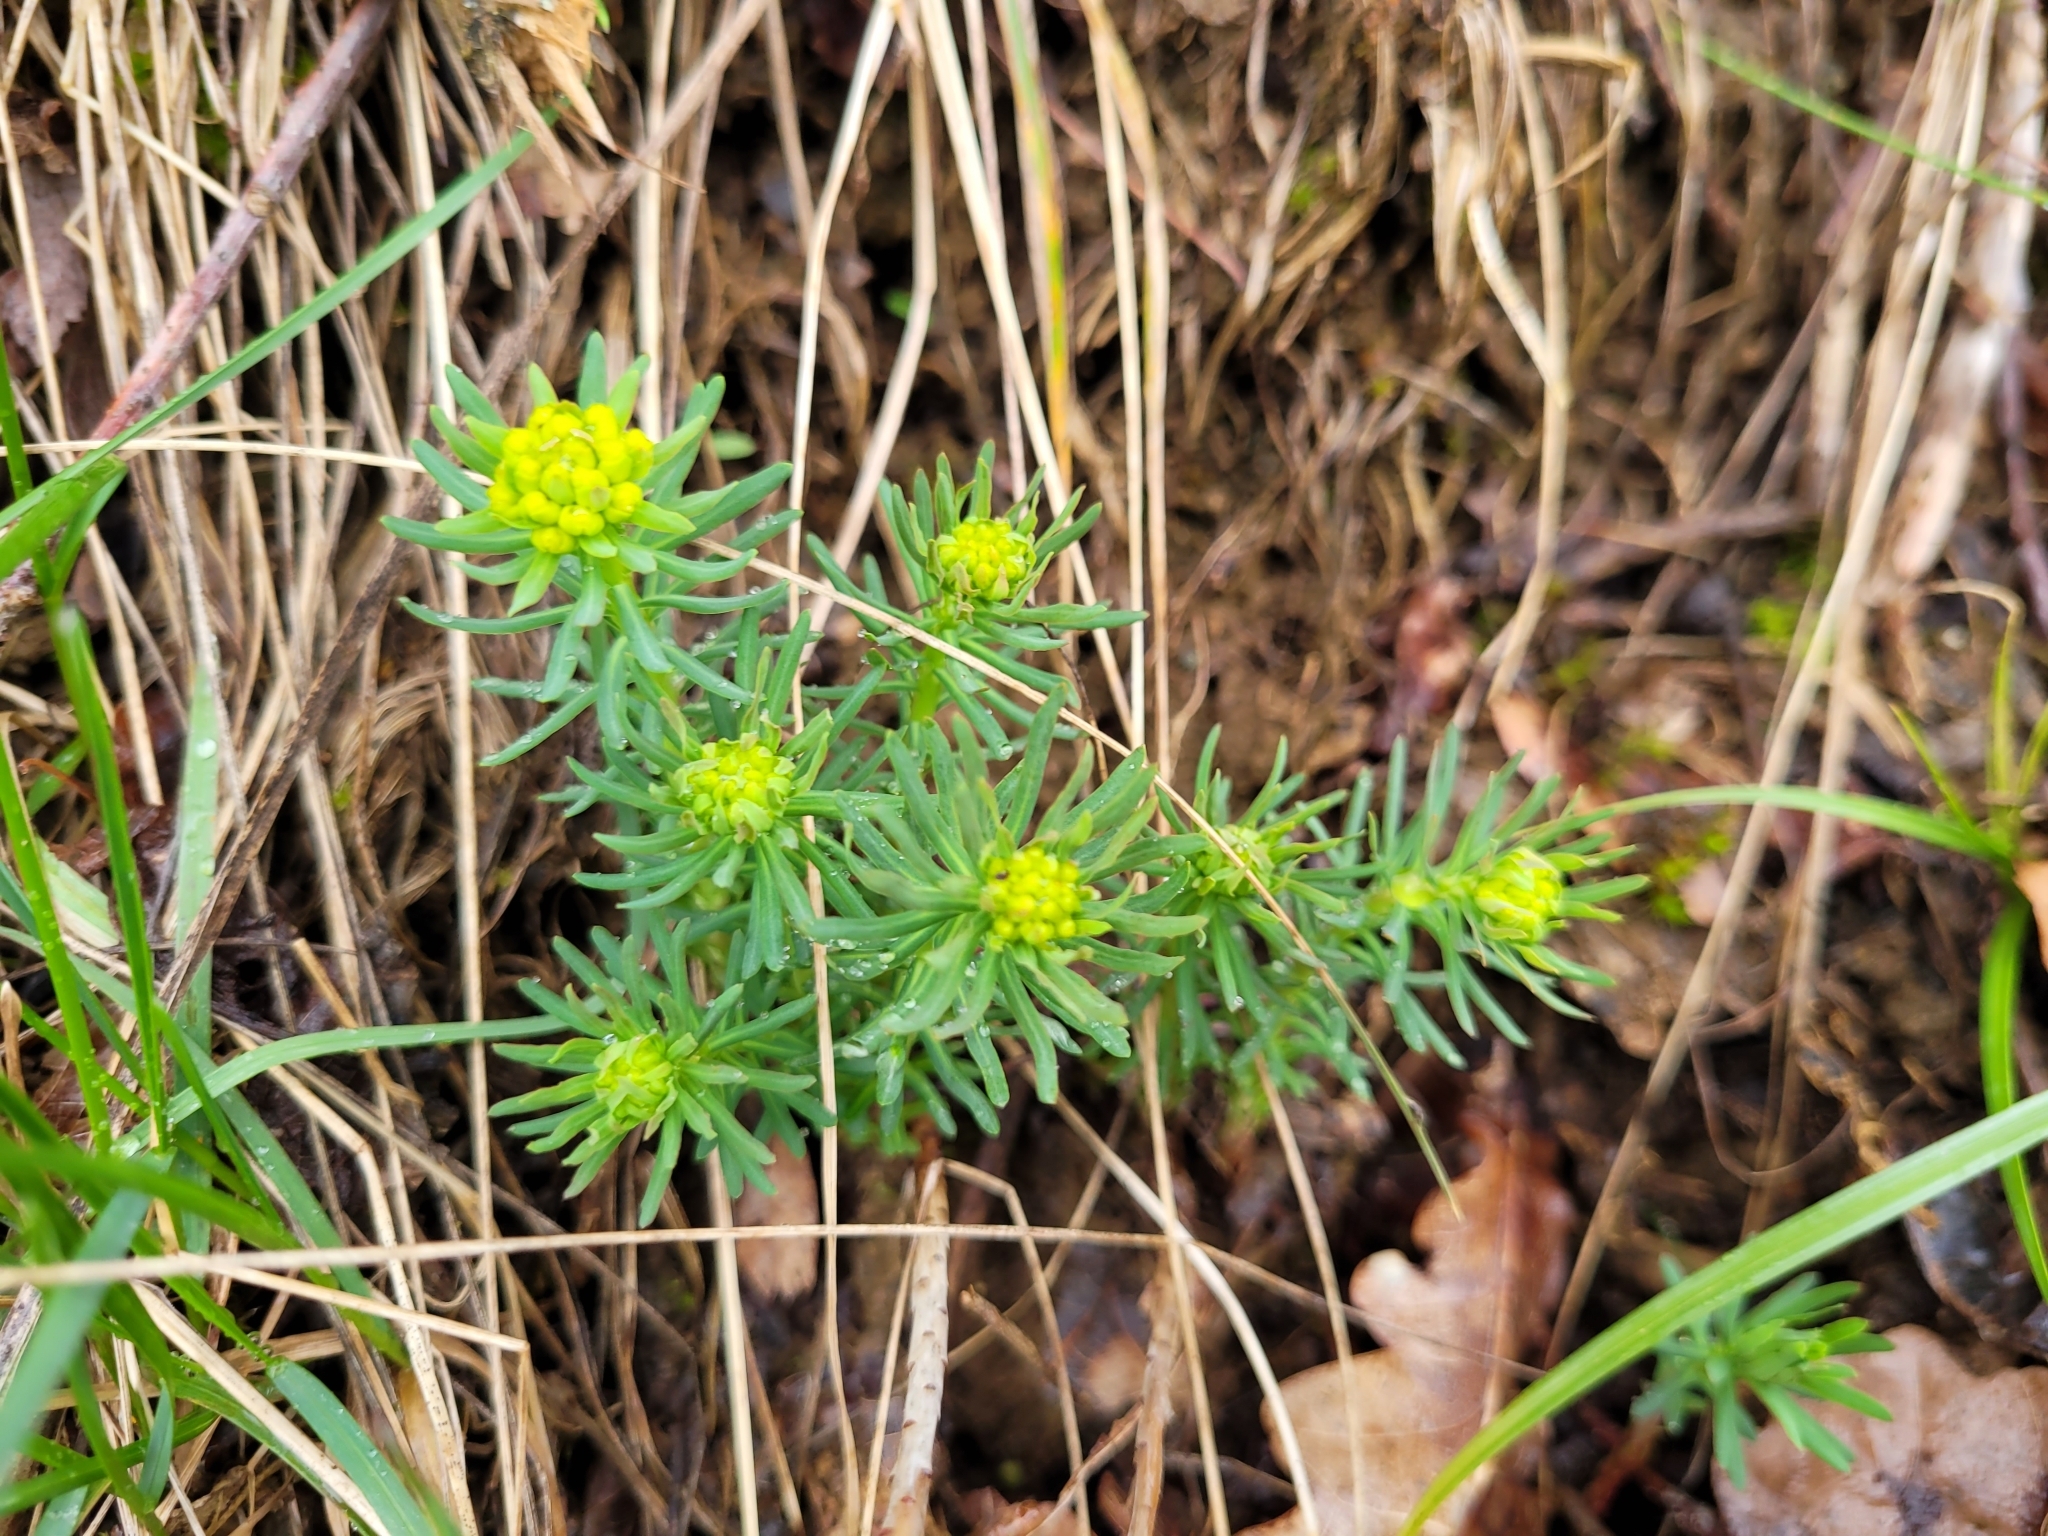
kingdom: Plantae
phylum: Tracheophyta
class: Magnoliopsida
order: Malpighiales
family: Euphorbiaceae
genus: Euphorbia
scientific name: Euphorbia cyparissias
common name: Cypress spurge
